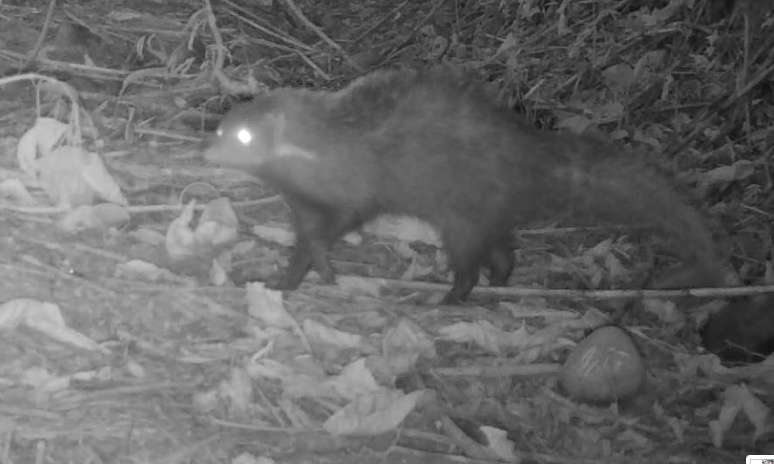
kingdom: Animalia
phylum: Chordata
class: Mammalia
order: Carnivora
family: Herpestidae
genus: Herpestes
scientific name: Herpestes urva
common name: Crab-eating mongoose
